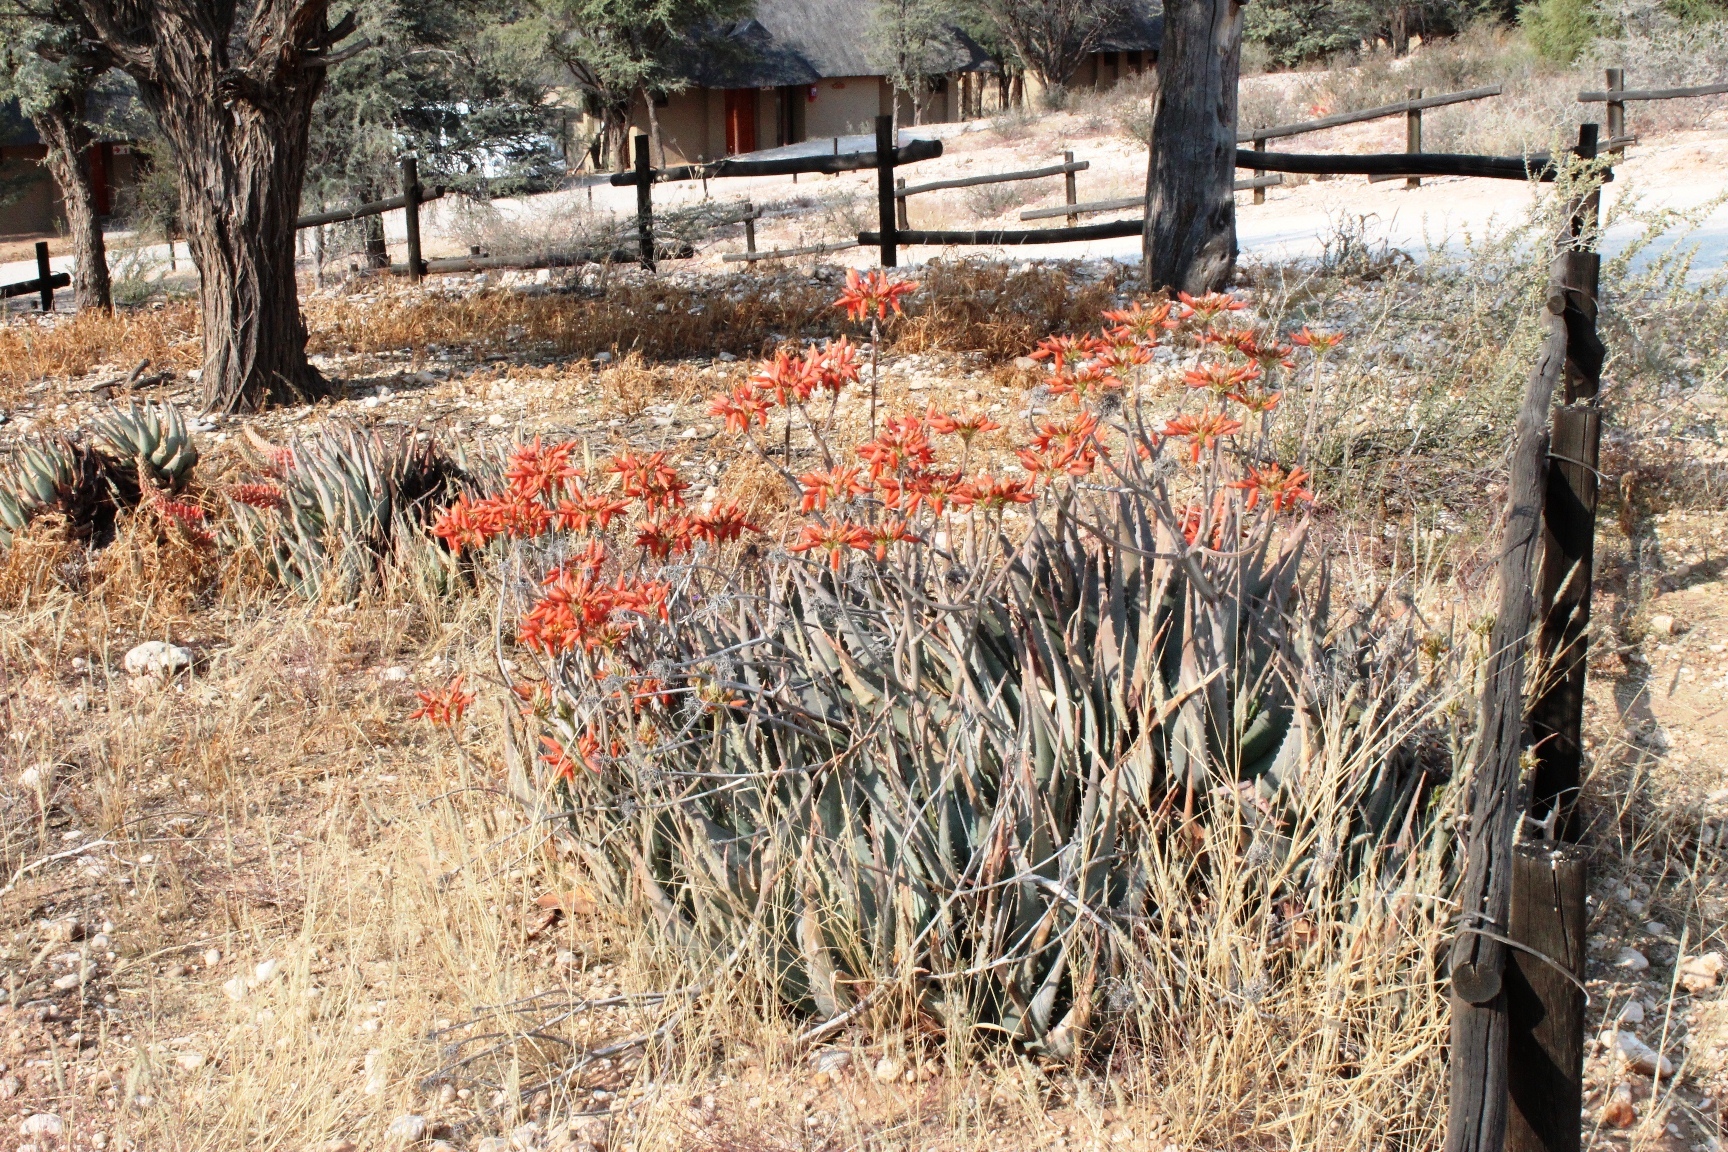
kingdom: Plantae
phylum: Tracheophyta
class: Liliopsida
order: Asparagales
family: Asphodelaceae
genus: Aloe
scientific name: Aloe hereroensis
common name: Herero aloe
